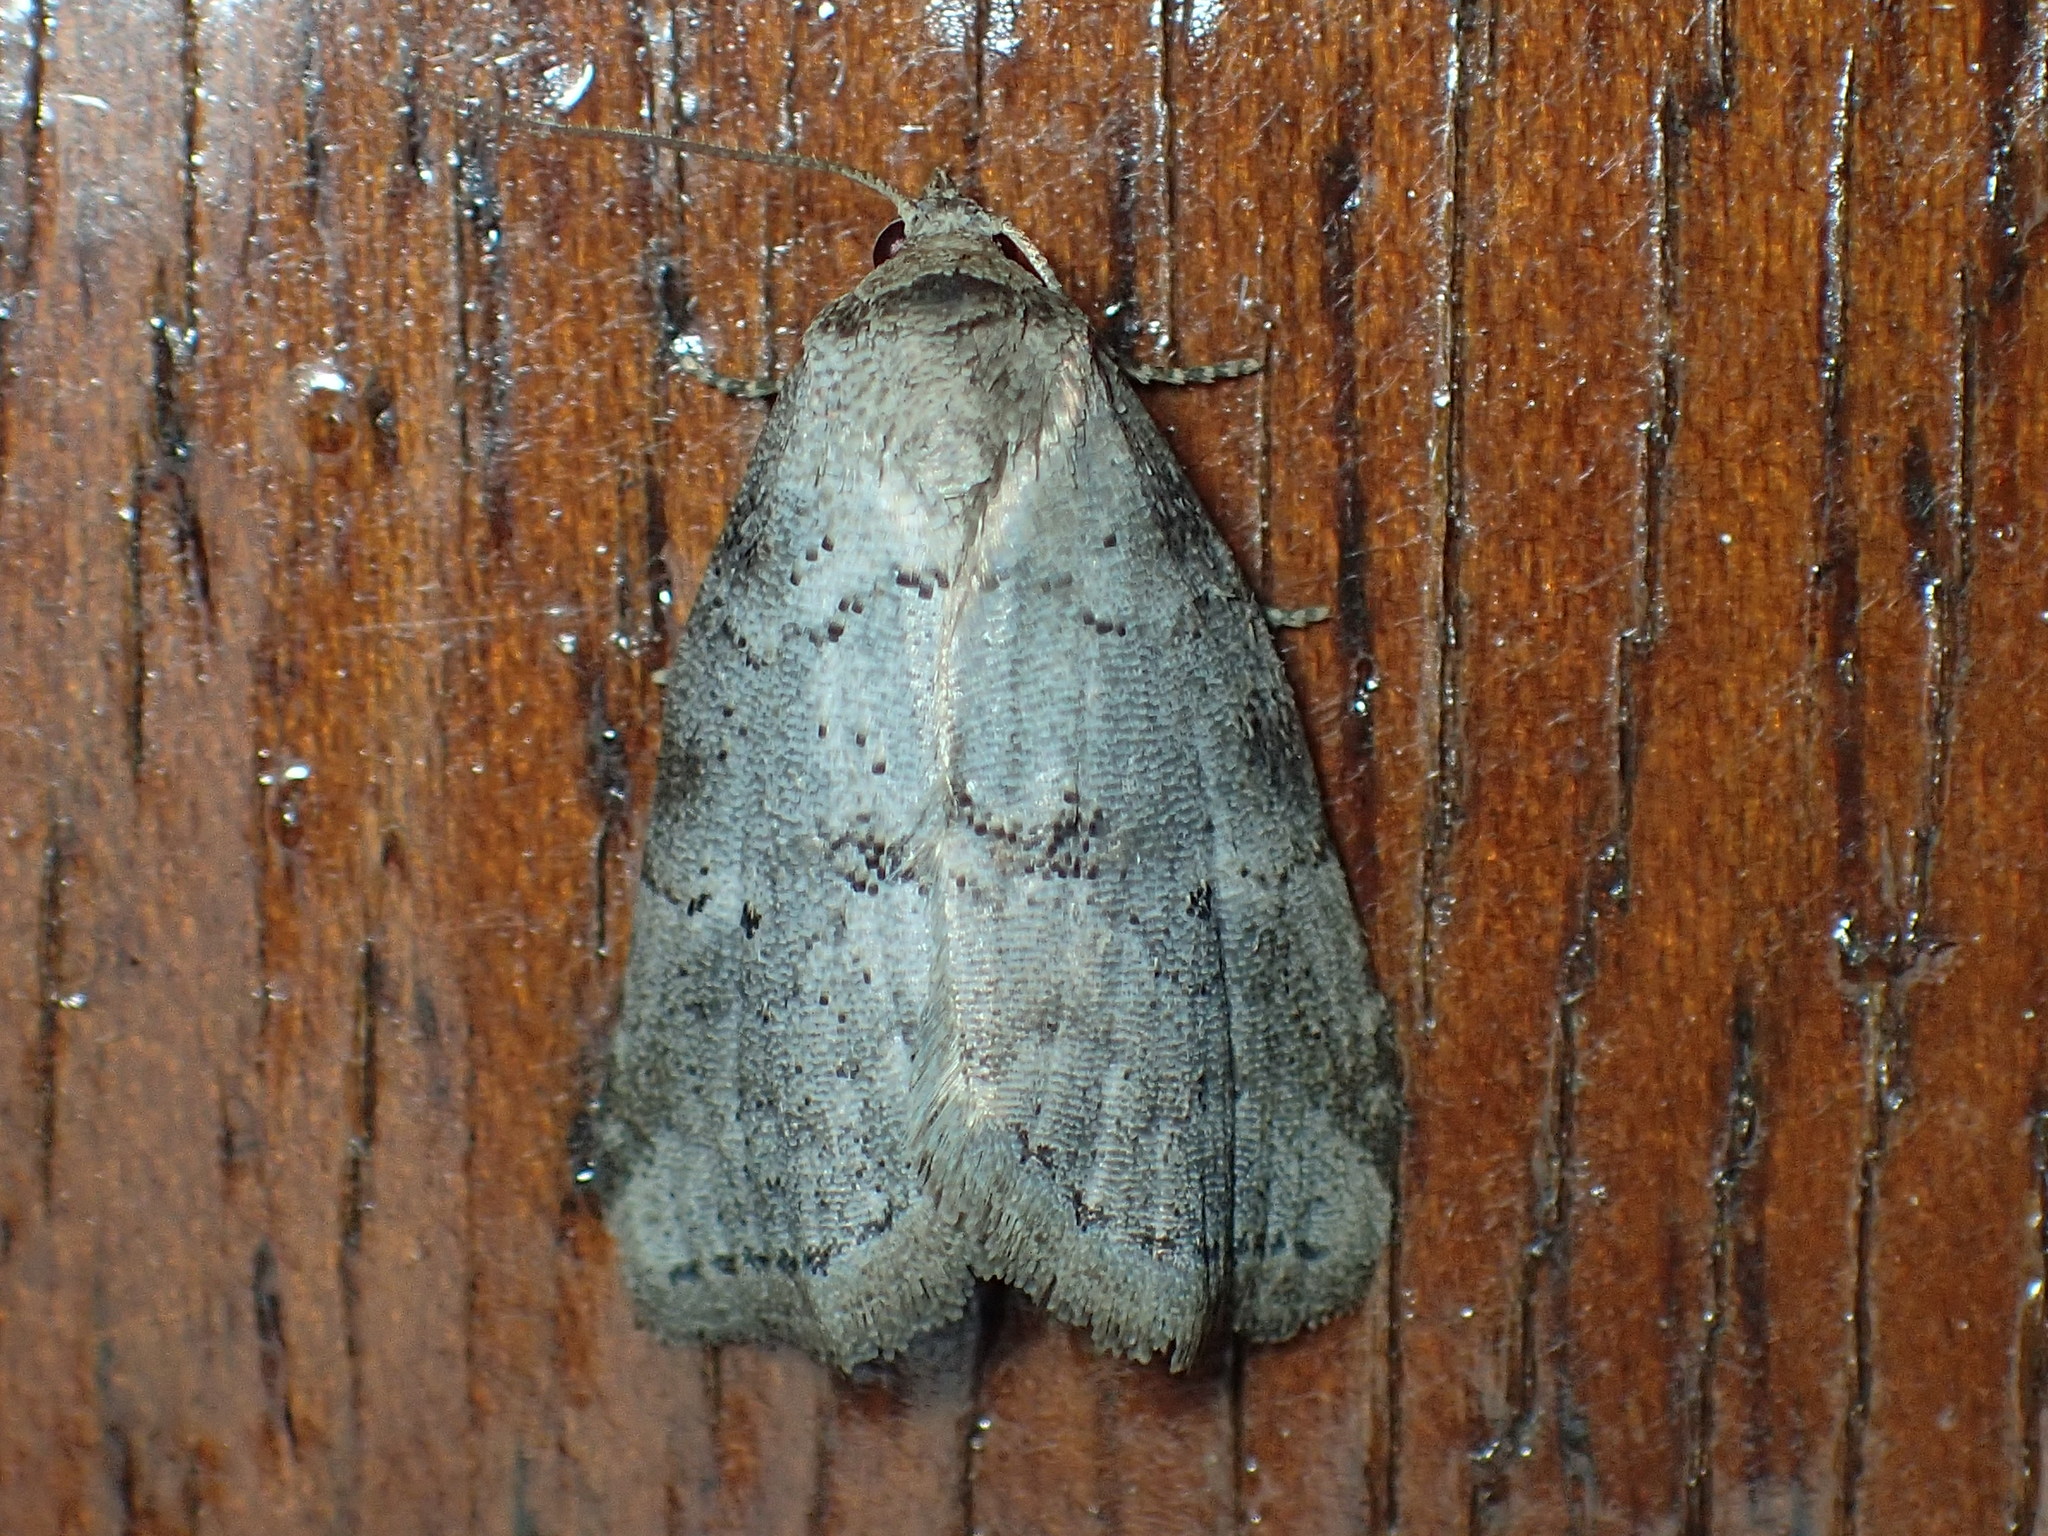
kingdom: Animalia
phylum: Arthropoda
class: Insecta
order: Lepidoptera
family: Erebidae
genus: Hyperstrotia
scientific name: Hyperstrotia pervertens
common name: Dotted graylet
